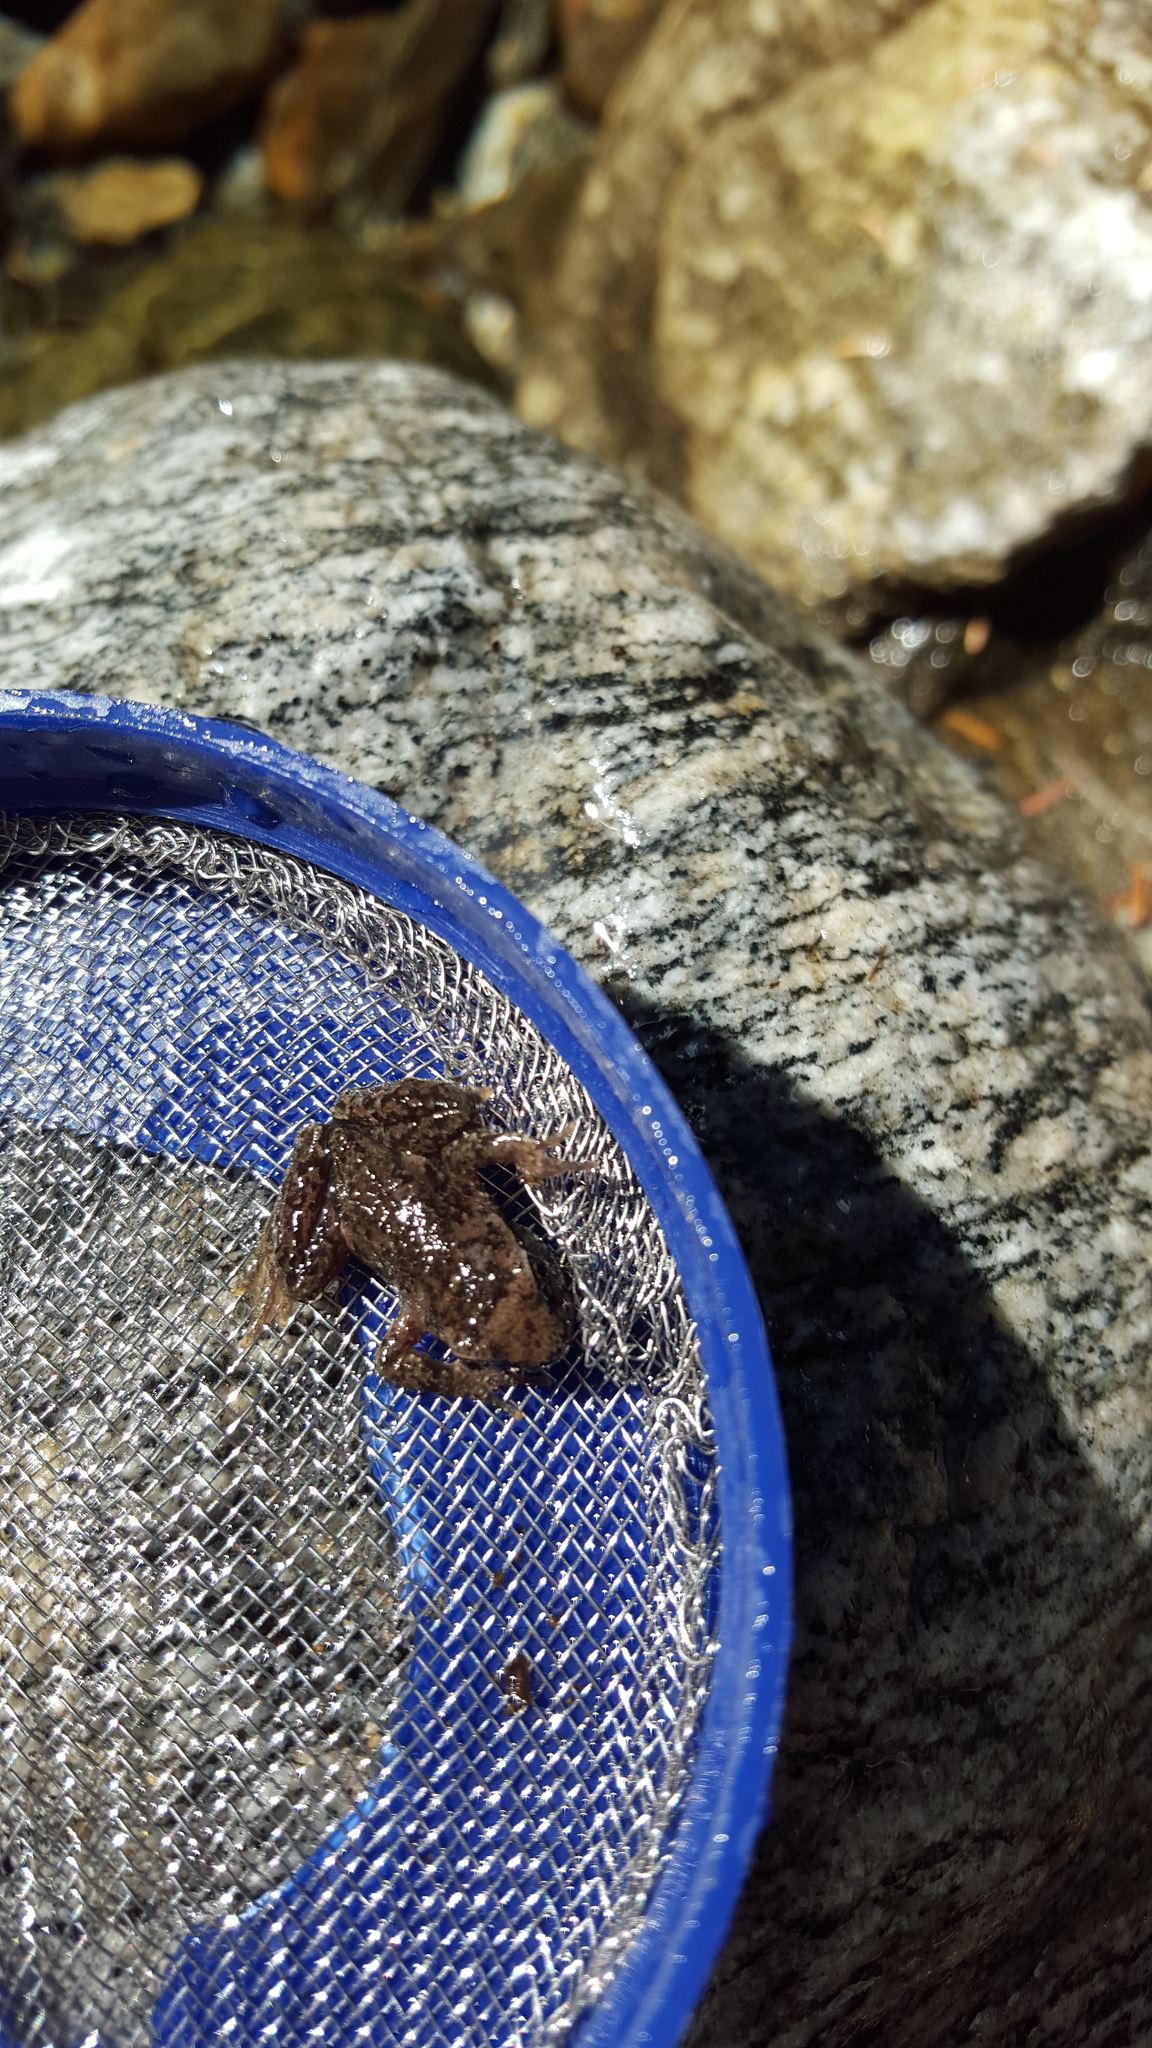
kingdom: Animalia
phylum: Chordata
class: Amphibia
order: Anura
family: Ascaphidae
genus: Ascaphus
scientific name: Ascaphus truei
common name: Tailed frog
